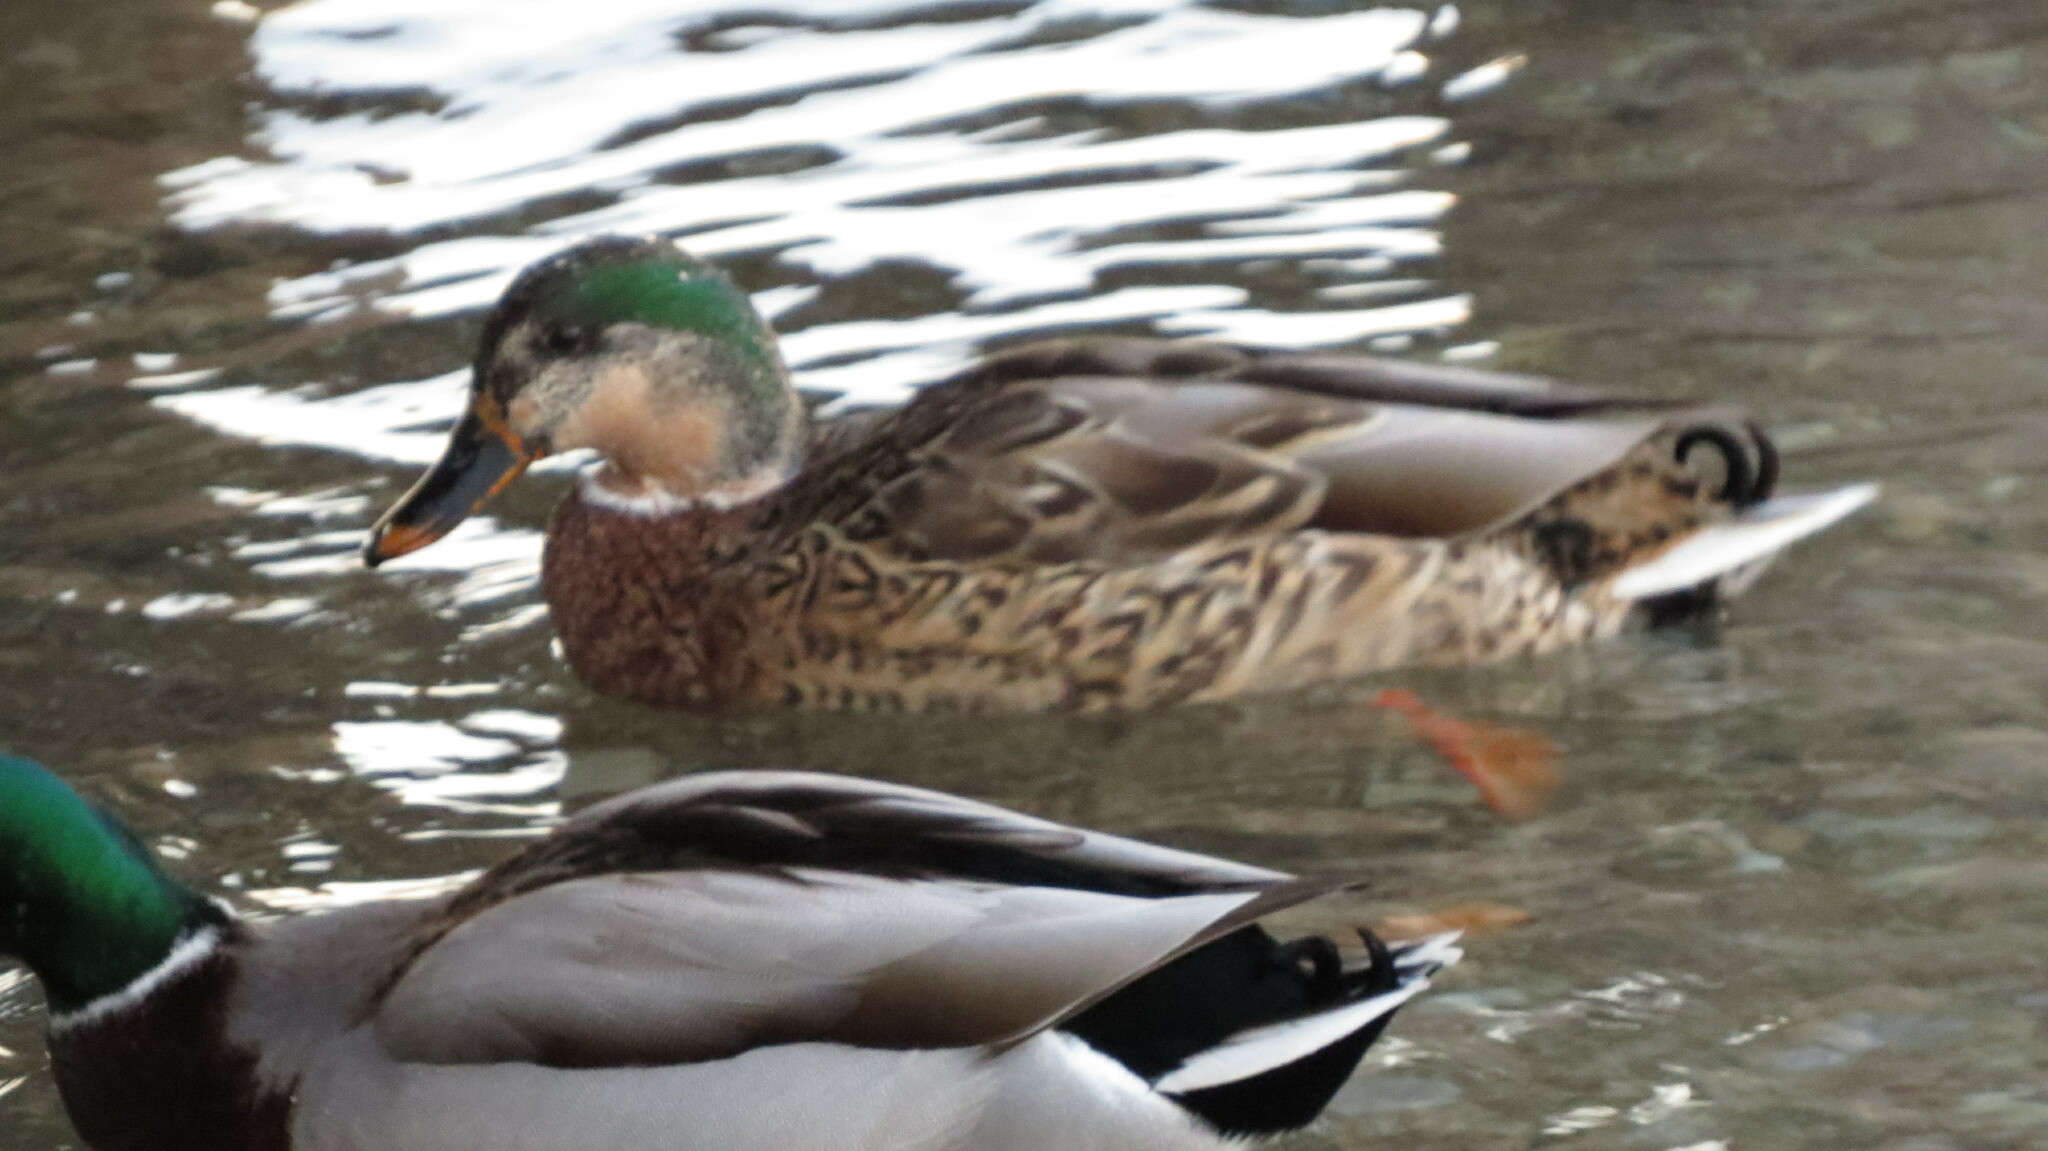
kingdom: Animalia
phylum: Chordata
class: Aves
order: Anseriformes
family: Anatidae
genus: Anas
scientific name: Anas platyrhynchos
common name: Mallard
